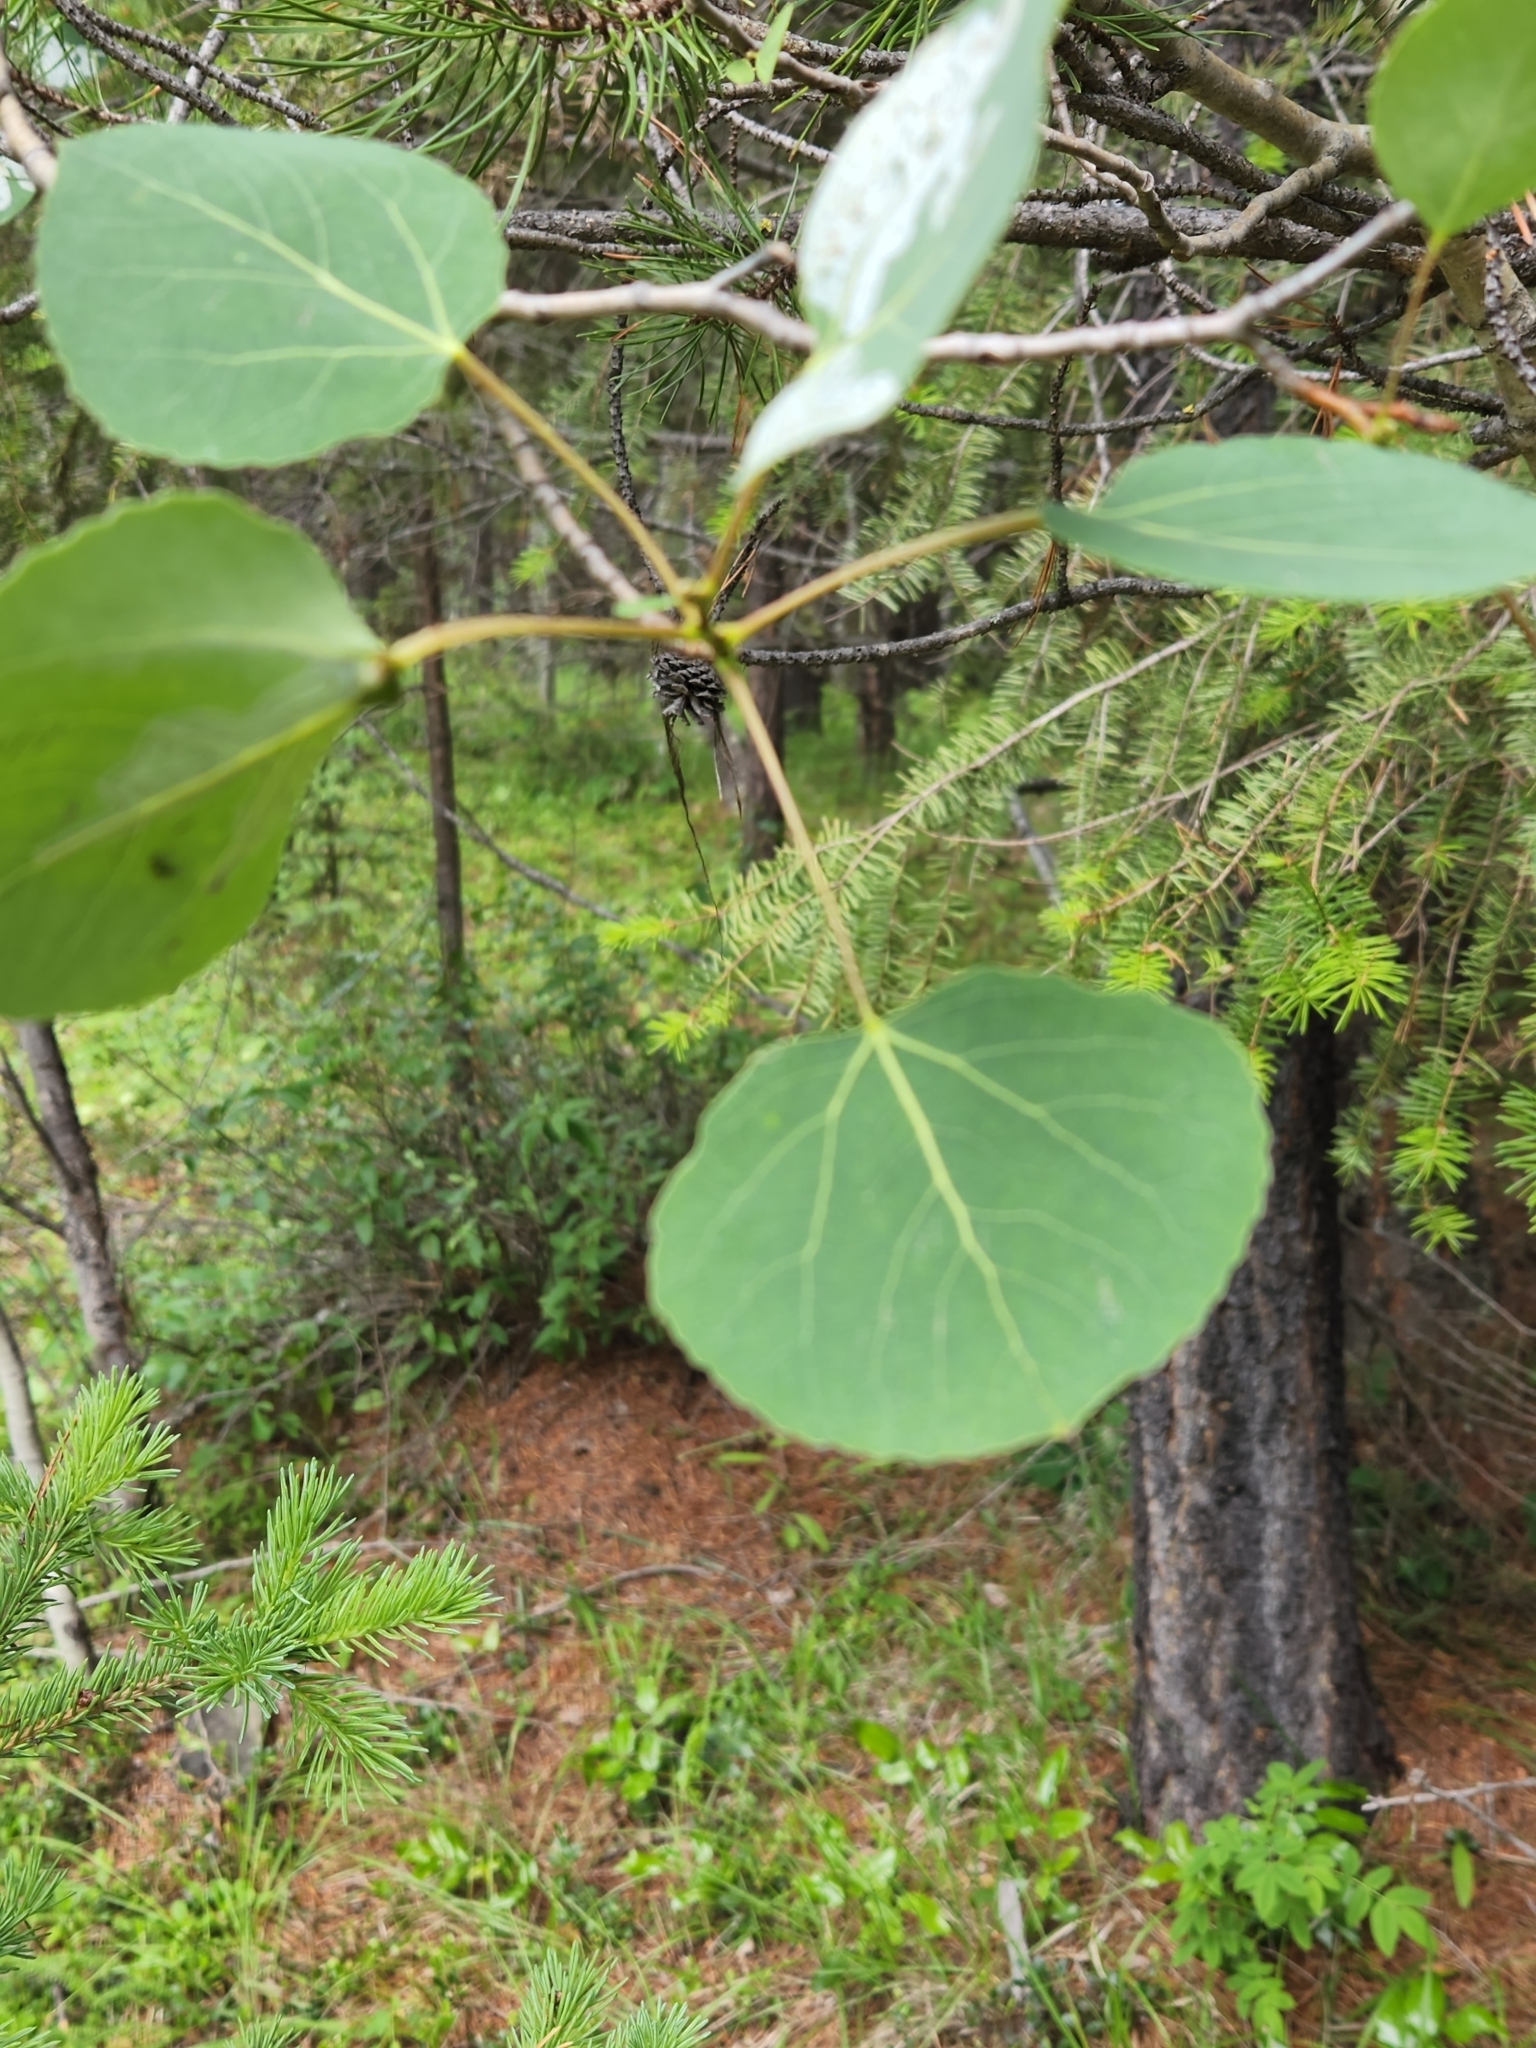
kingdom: Plantae
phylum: Tracheophyta
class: Magnoliopsida
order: Malpighiales
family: Salicaceae
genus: Populus
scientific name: Populus tremuloides
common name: Quaking aspen
